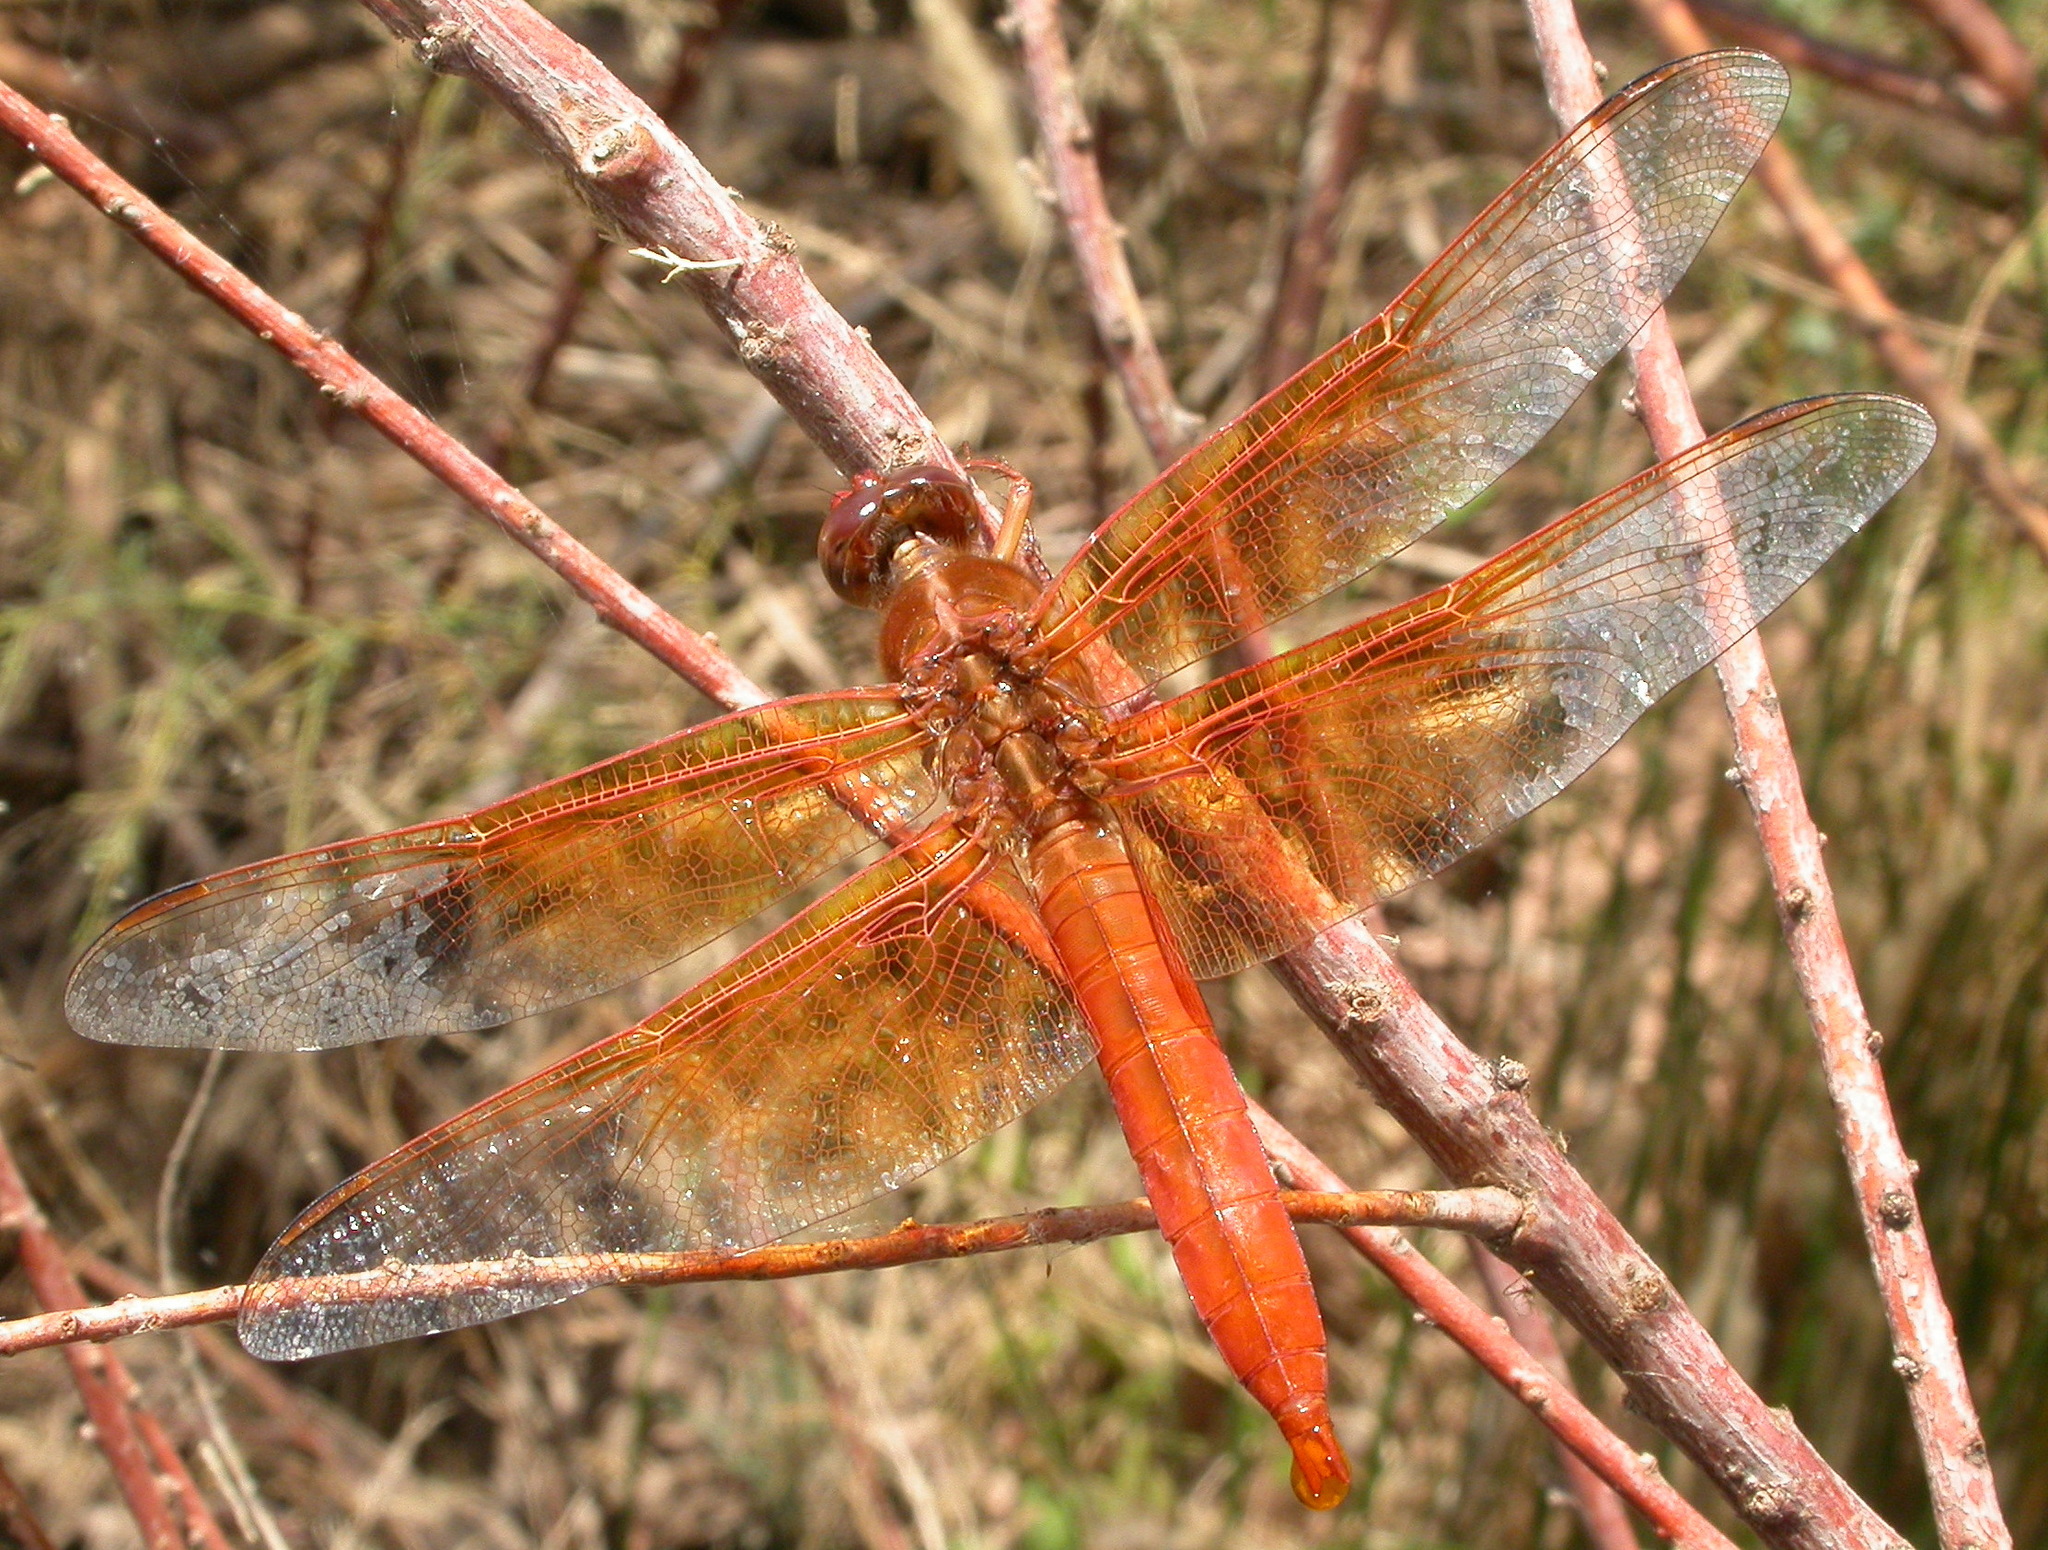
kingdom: Animalia
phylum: Arthropoda
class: Insecta
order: Odonata
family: Libellulidae
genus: Libellula
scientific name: Libellula saturata
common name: Flame skimmer
